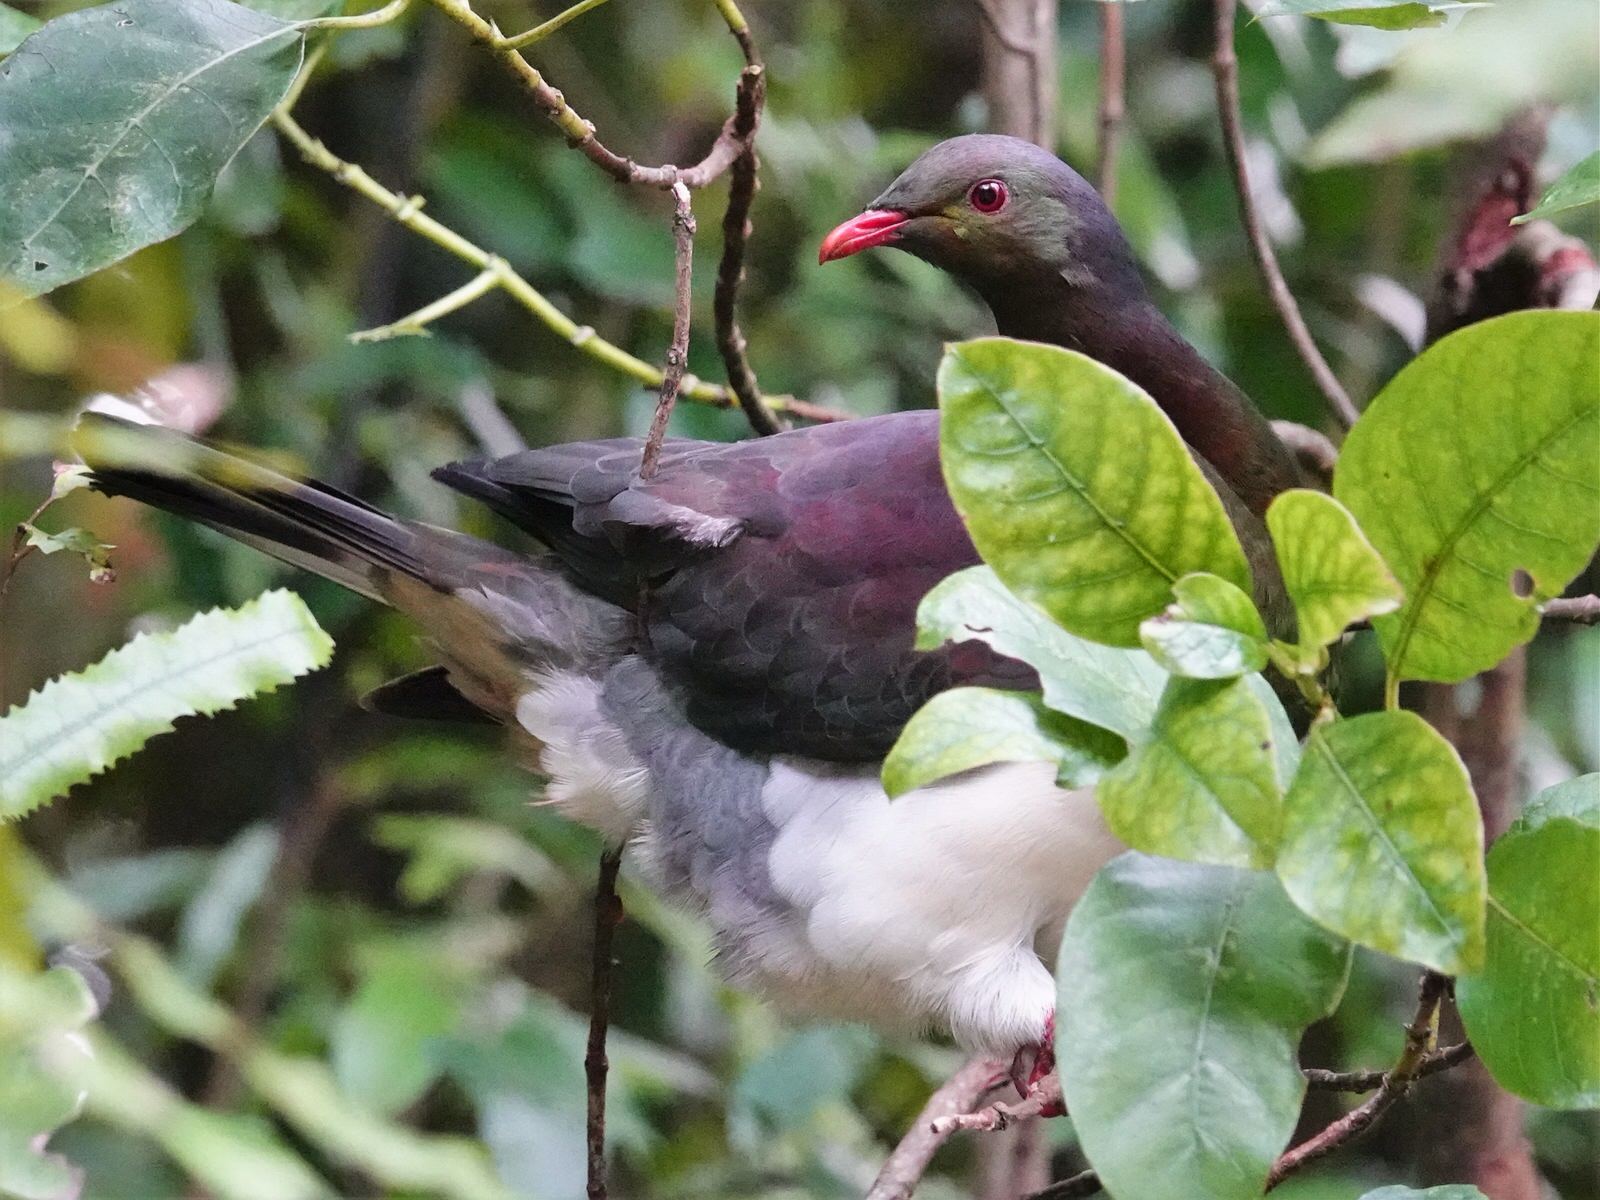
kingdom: Animalia
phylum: Chordata
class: Aves
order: Columbiformes
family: Columbidae
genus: Hemiphaga
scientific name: Hemiphaga novaeseelandiae
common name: New zealand pigeon
